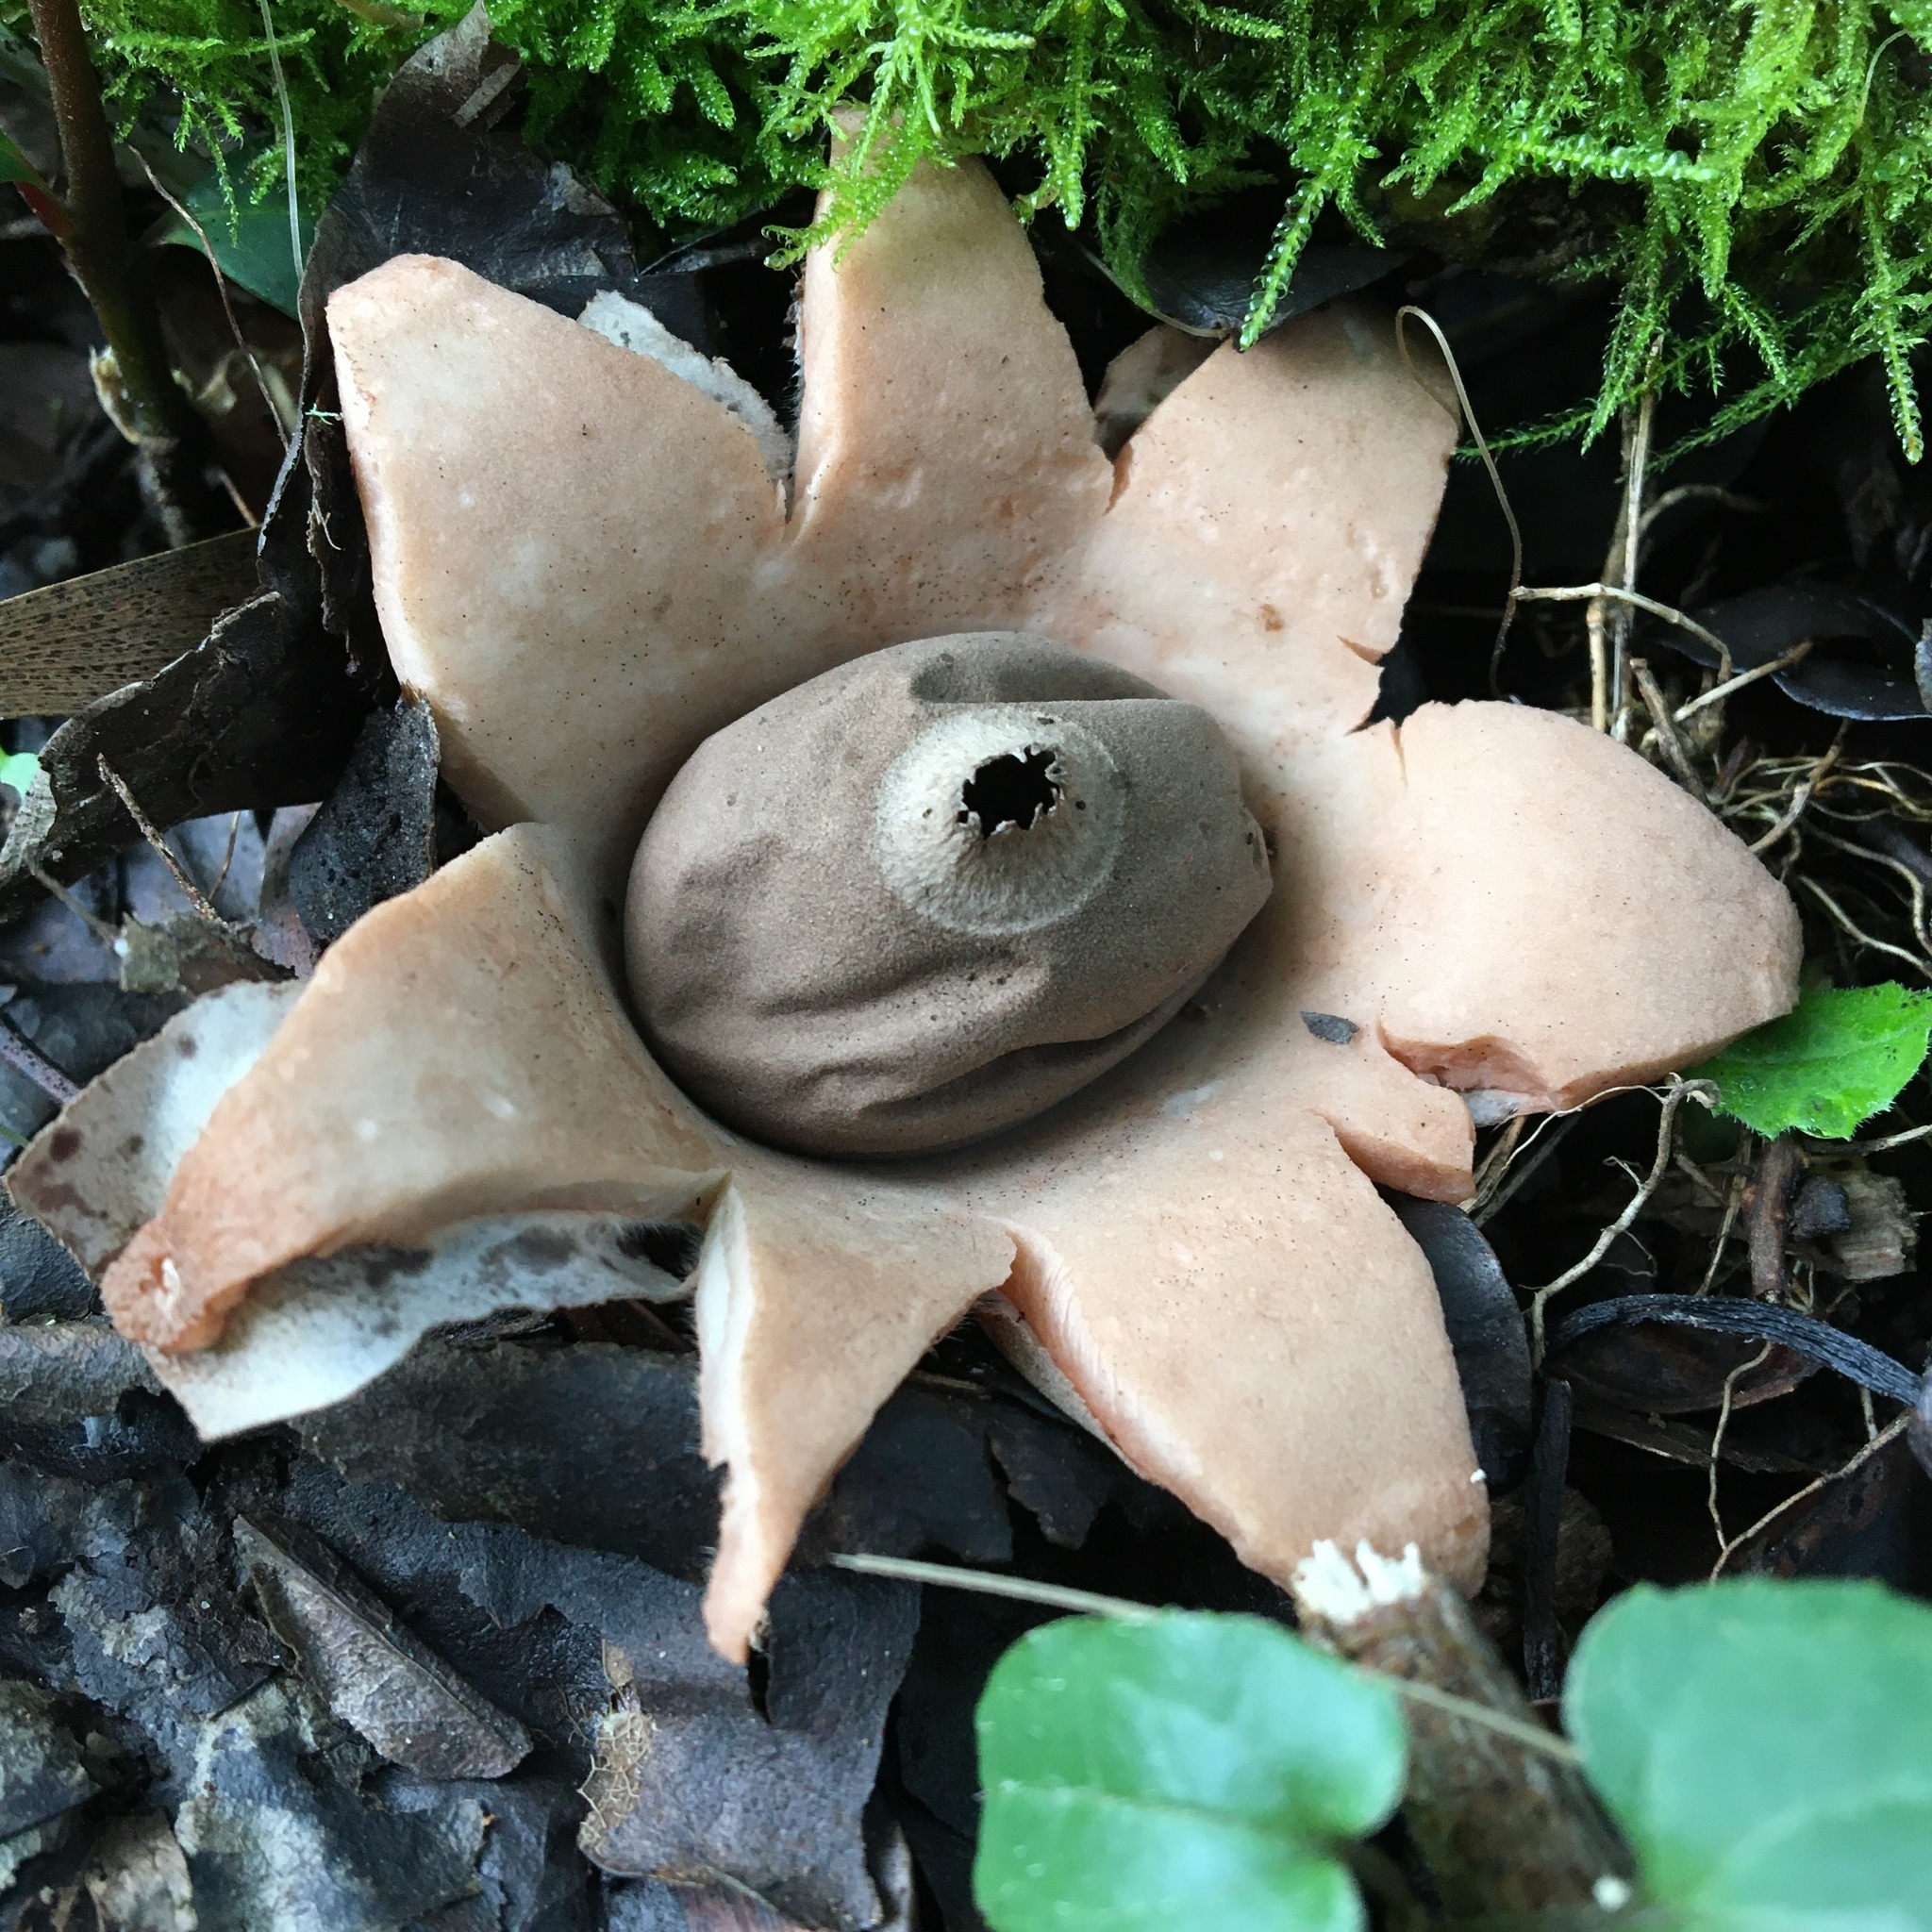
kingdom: Fungi
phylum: Basidiomycota
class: Agaricomycetes
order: Geastrales
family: Geastraceae
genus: Geastrum
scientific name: Geastrum triplex
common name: Collared earthstar
